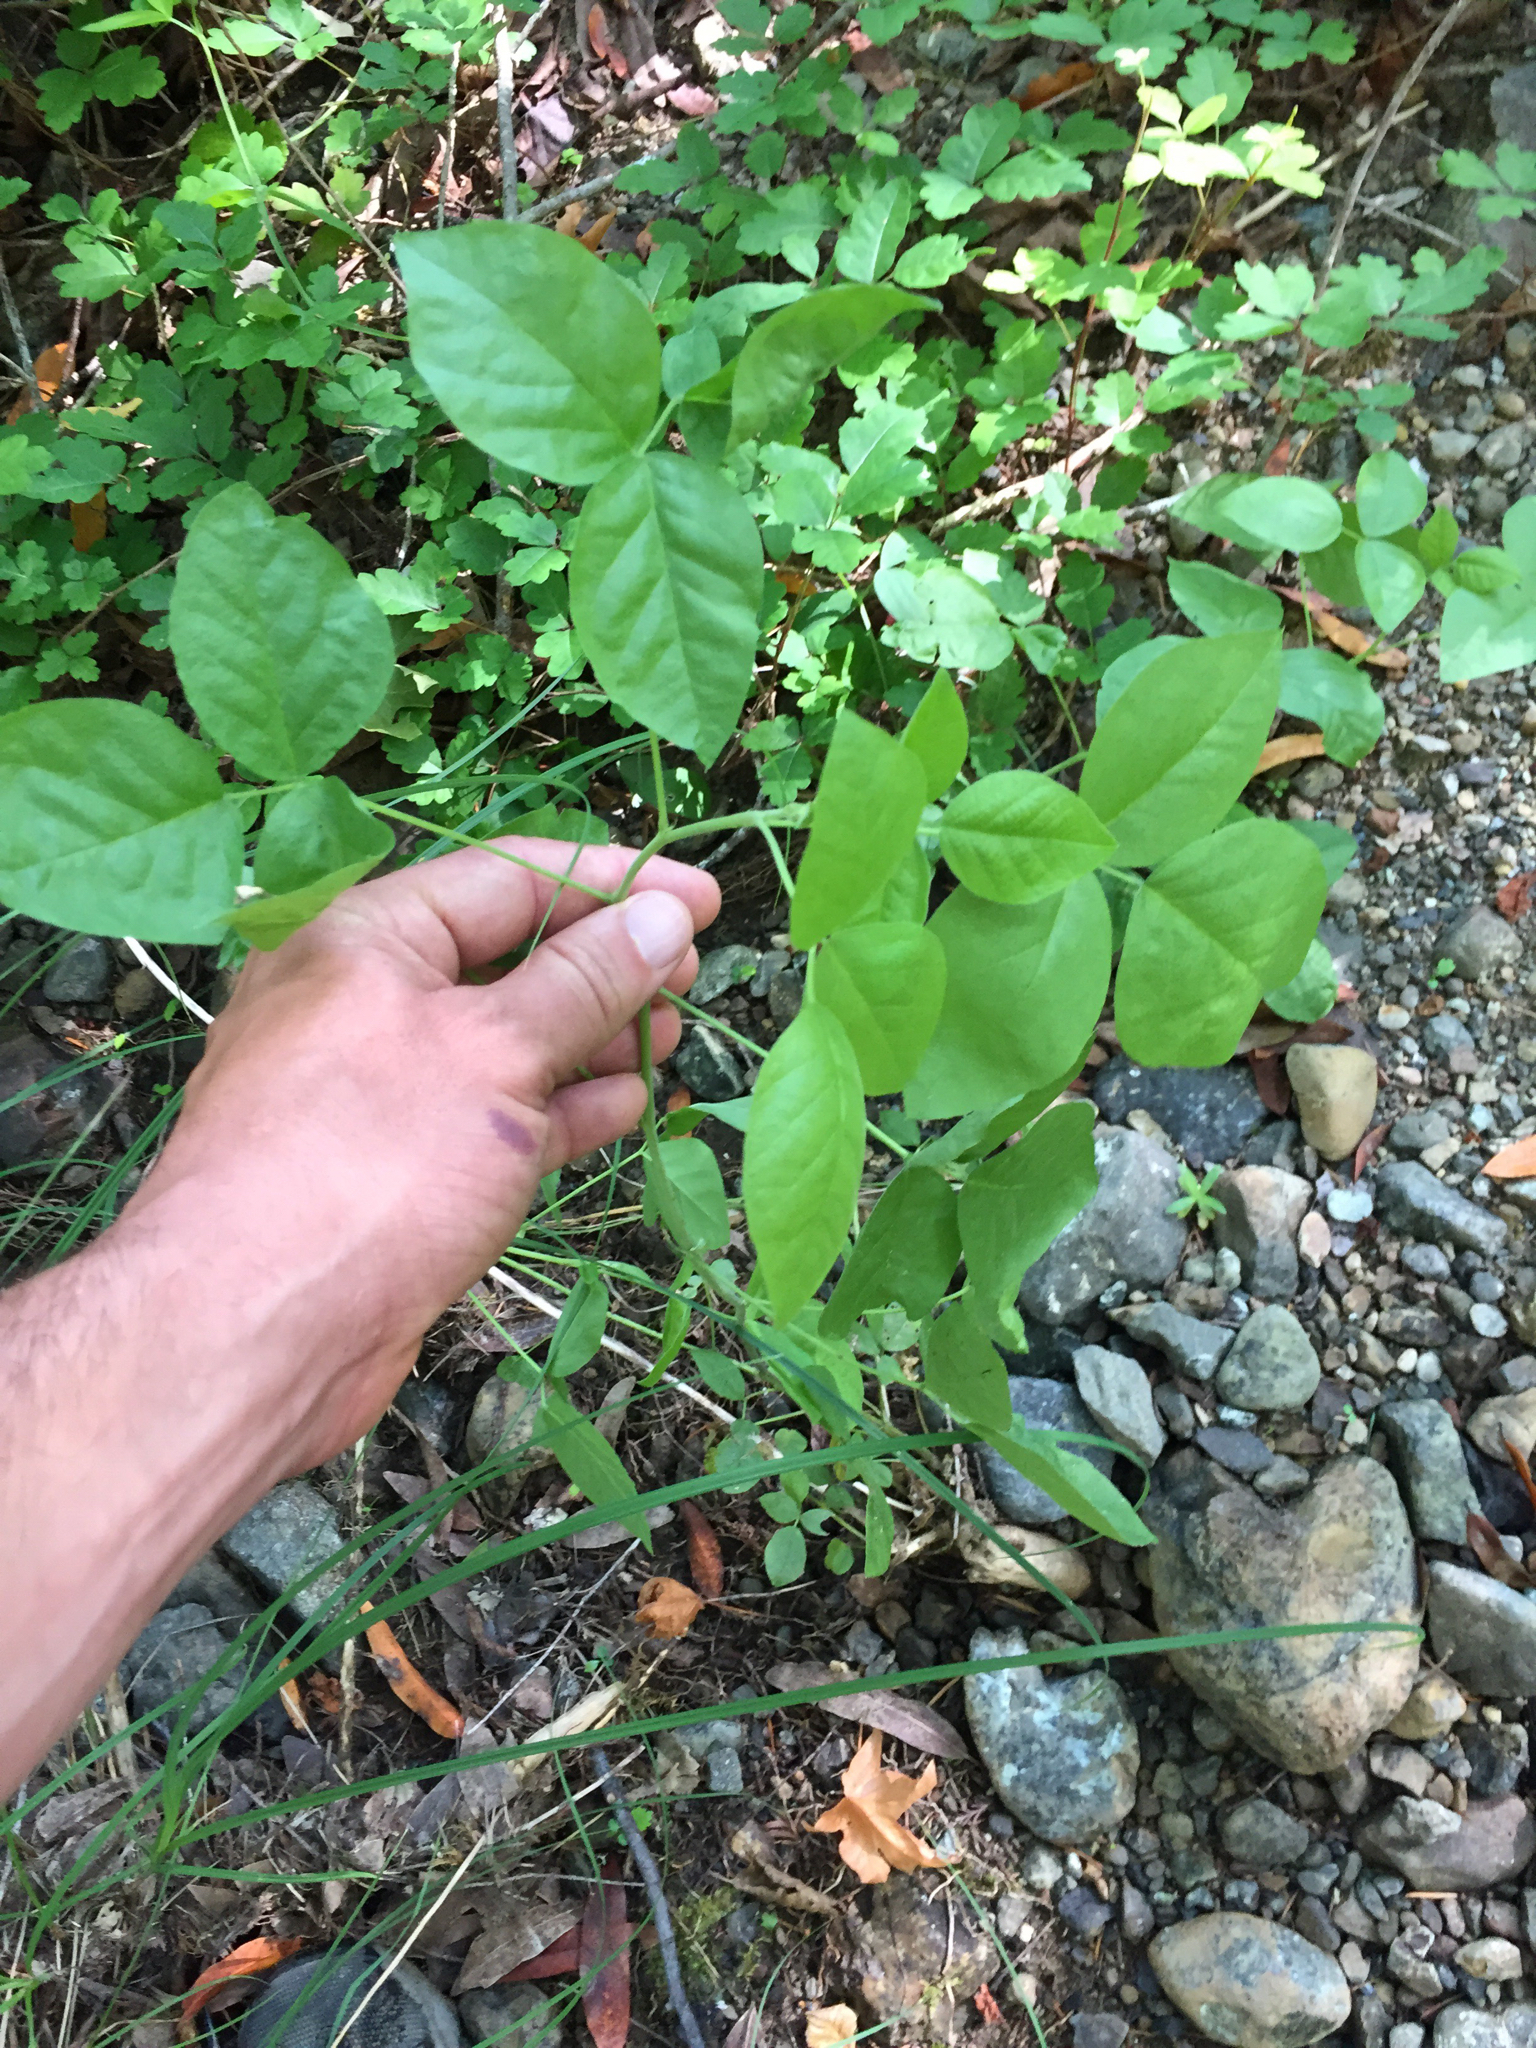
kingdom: Plantae
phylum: Tracheophyta
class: Magnoliopsida
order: Fabales
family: Fabaceae
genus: Rupertia
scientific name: Rupertia physodes
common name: California-tea
